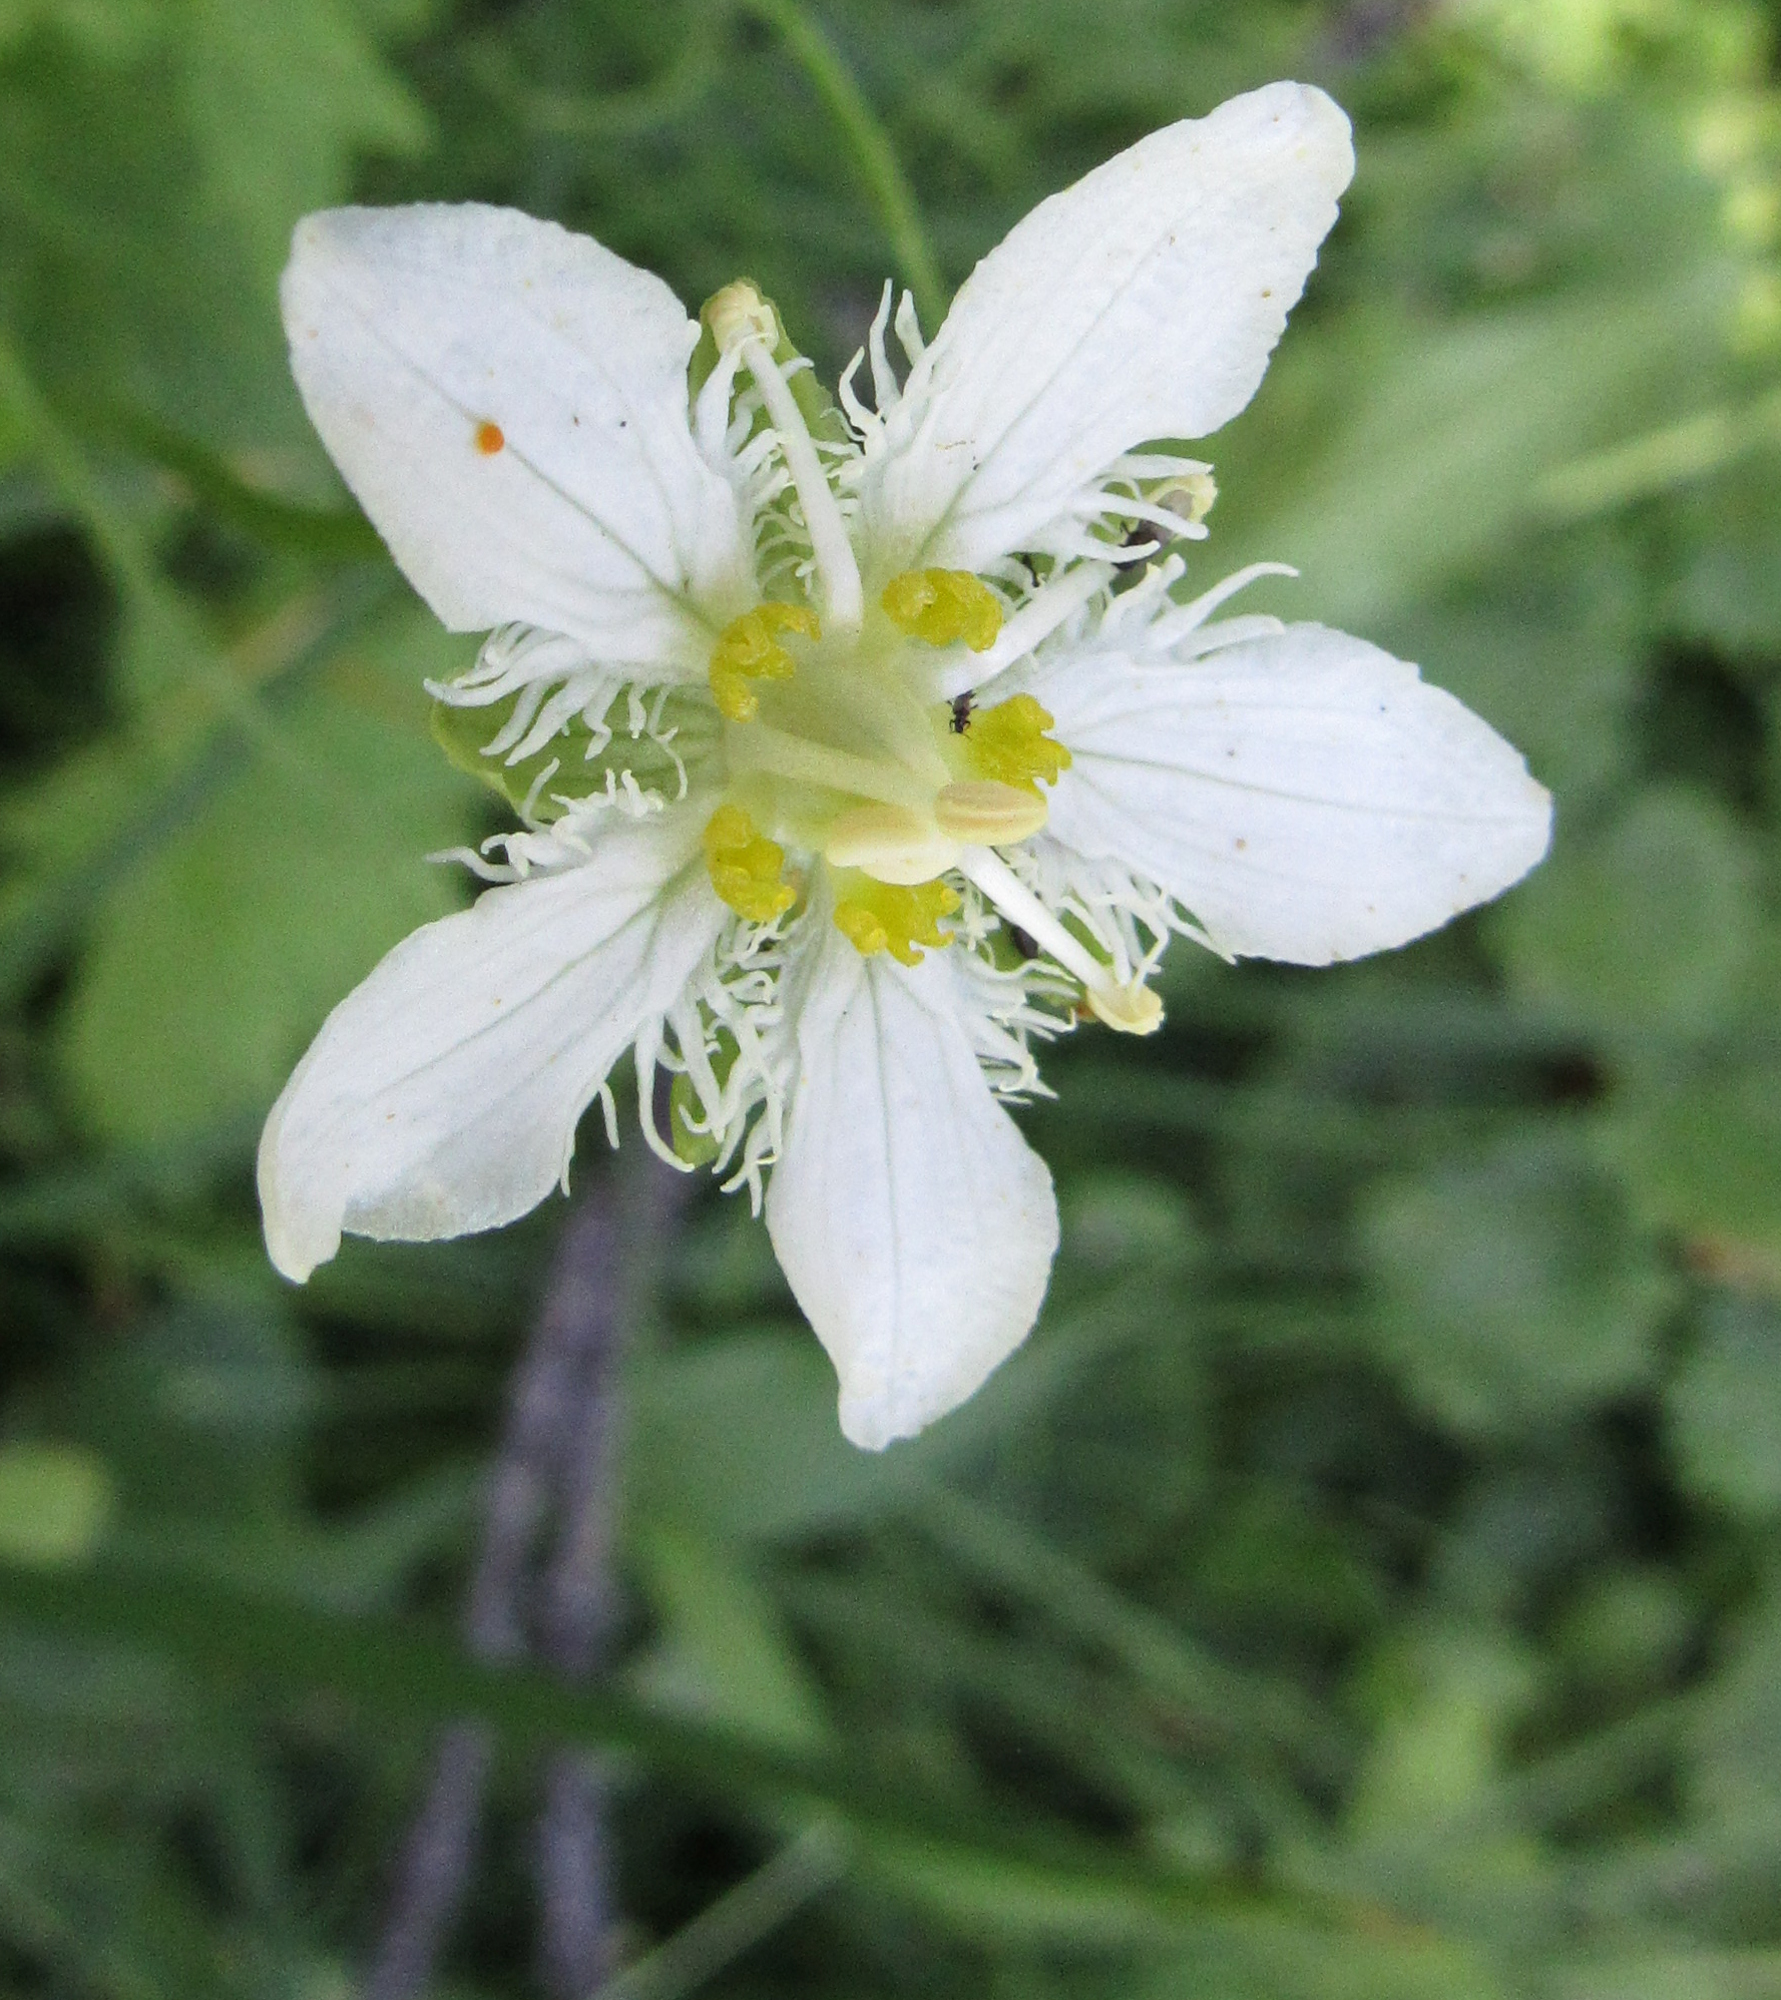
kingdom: Plantae
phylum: Tracheophyta
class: Magnoliopsida
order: Celastrales
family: Parnassiaceae
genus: Parnassia
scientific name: Parnassia fimbriata
